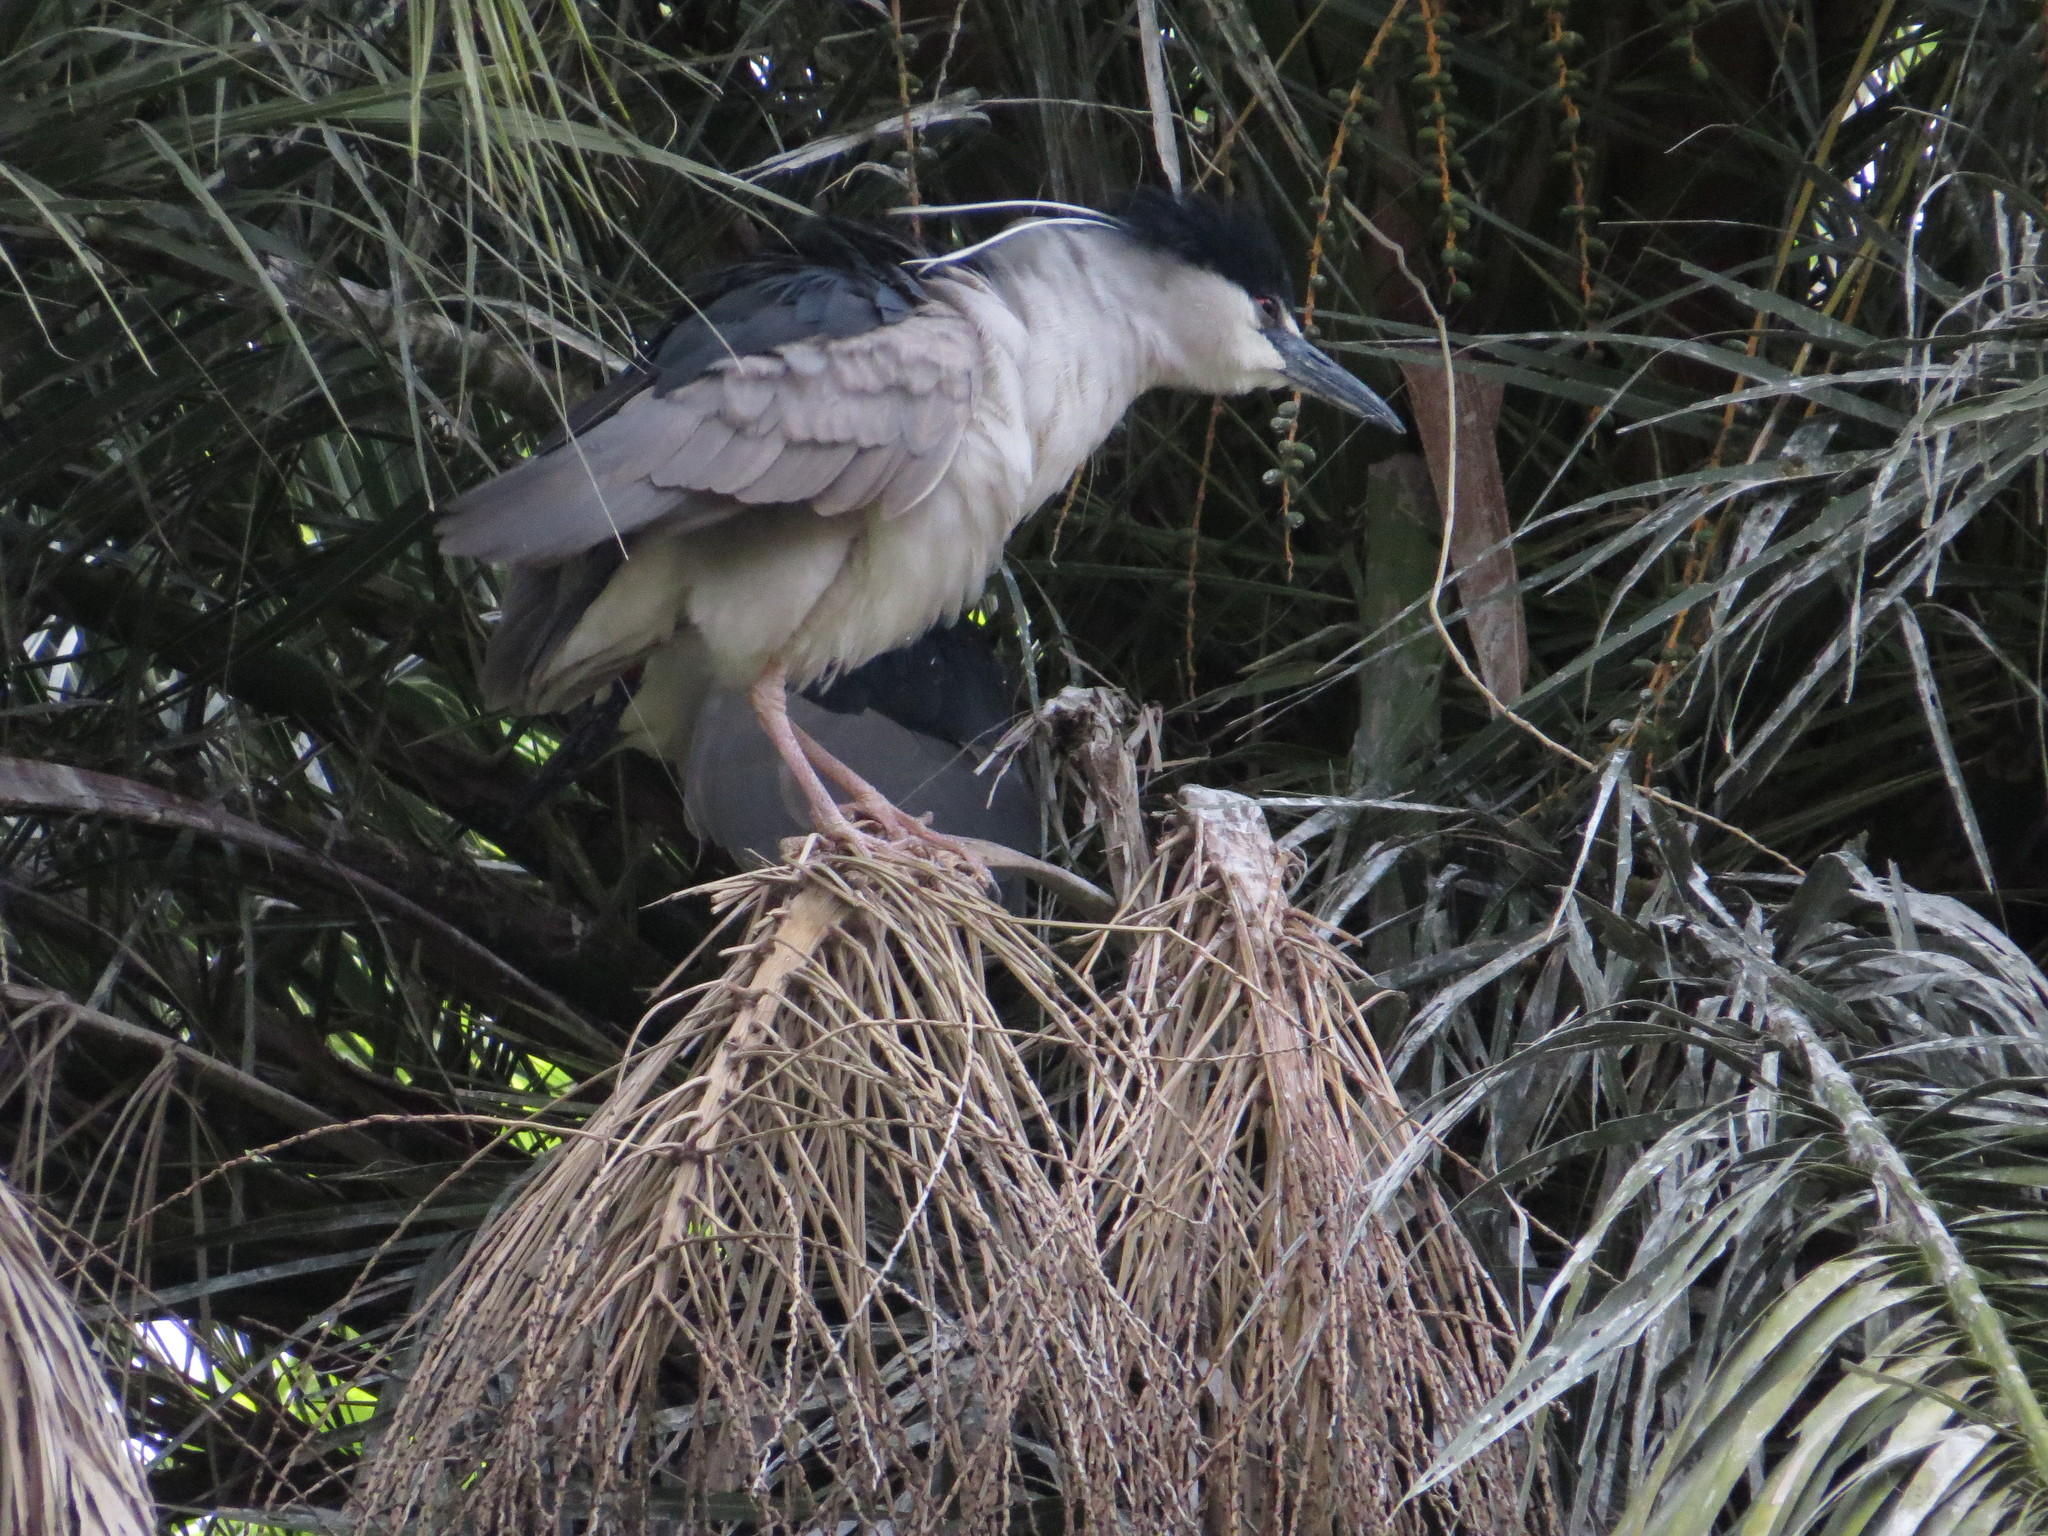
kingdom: Animalia
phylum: Chordata
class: Aves
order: Pelecaniformes
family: Ardeidae
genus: Nycticorax
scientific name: Nycticorax nycticorax
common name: Black-crowned night heron
